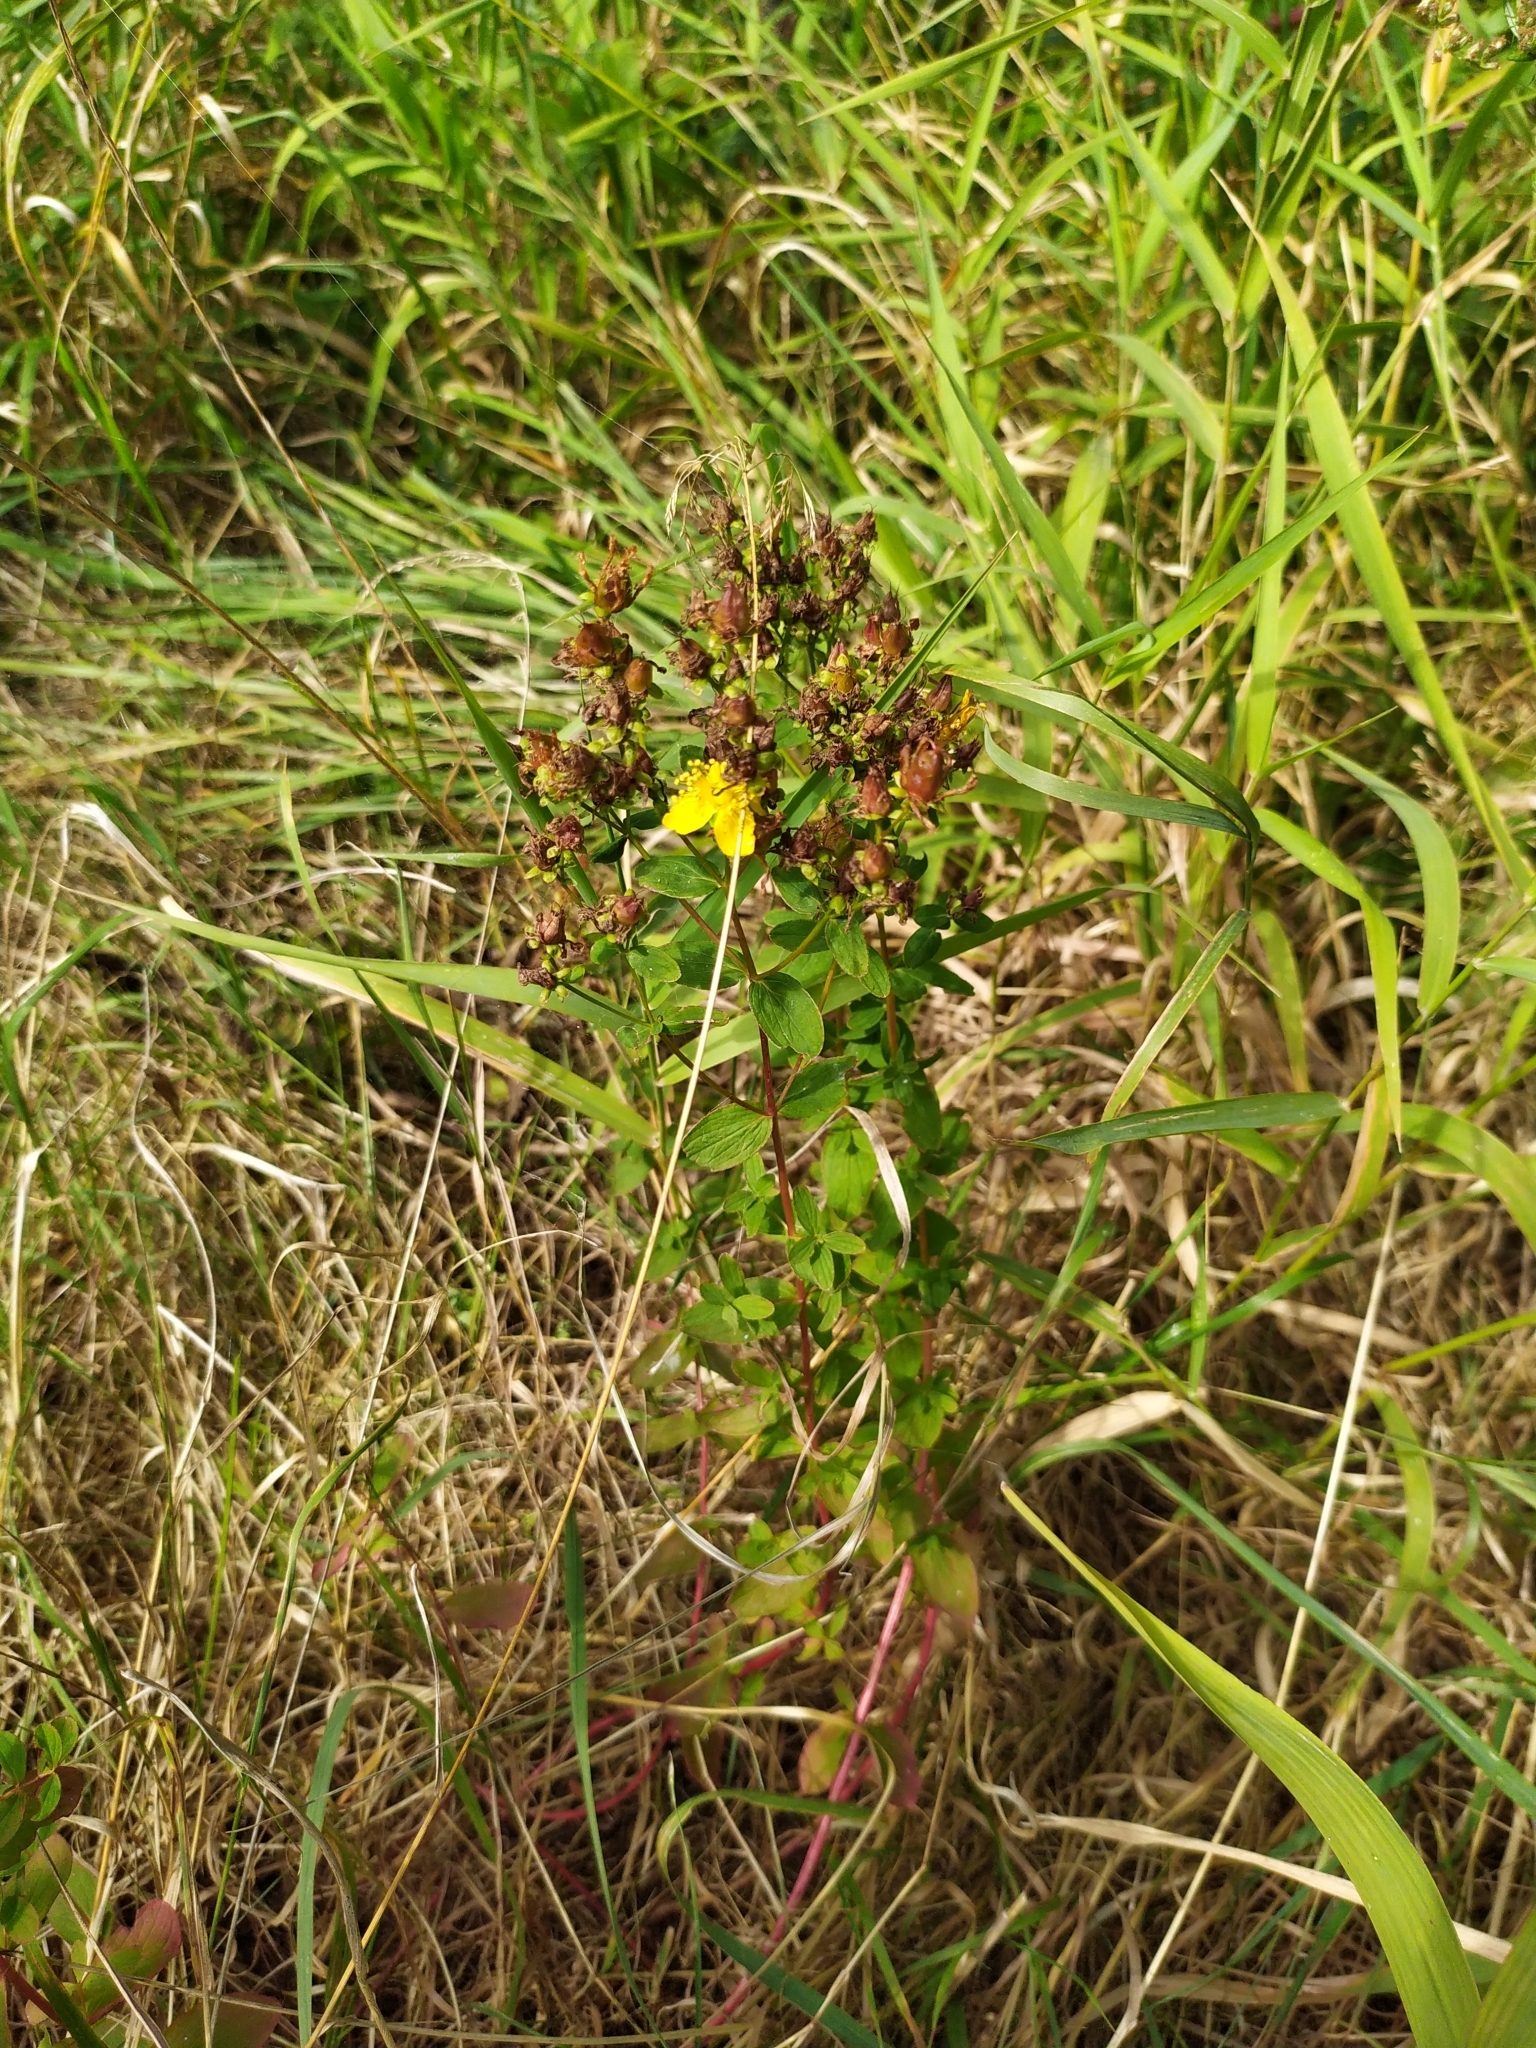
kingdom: Plantae
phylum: Tracheophyta
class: Magnoliopsida
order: Malpighiales
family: Hypericaceae
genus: Hypericum
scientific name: Hypericum perforatum
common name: Common st. johnswort
